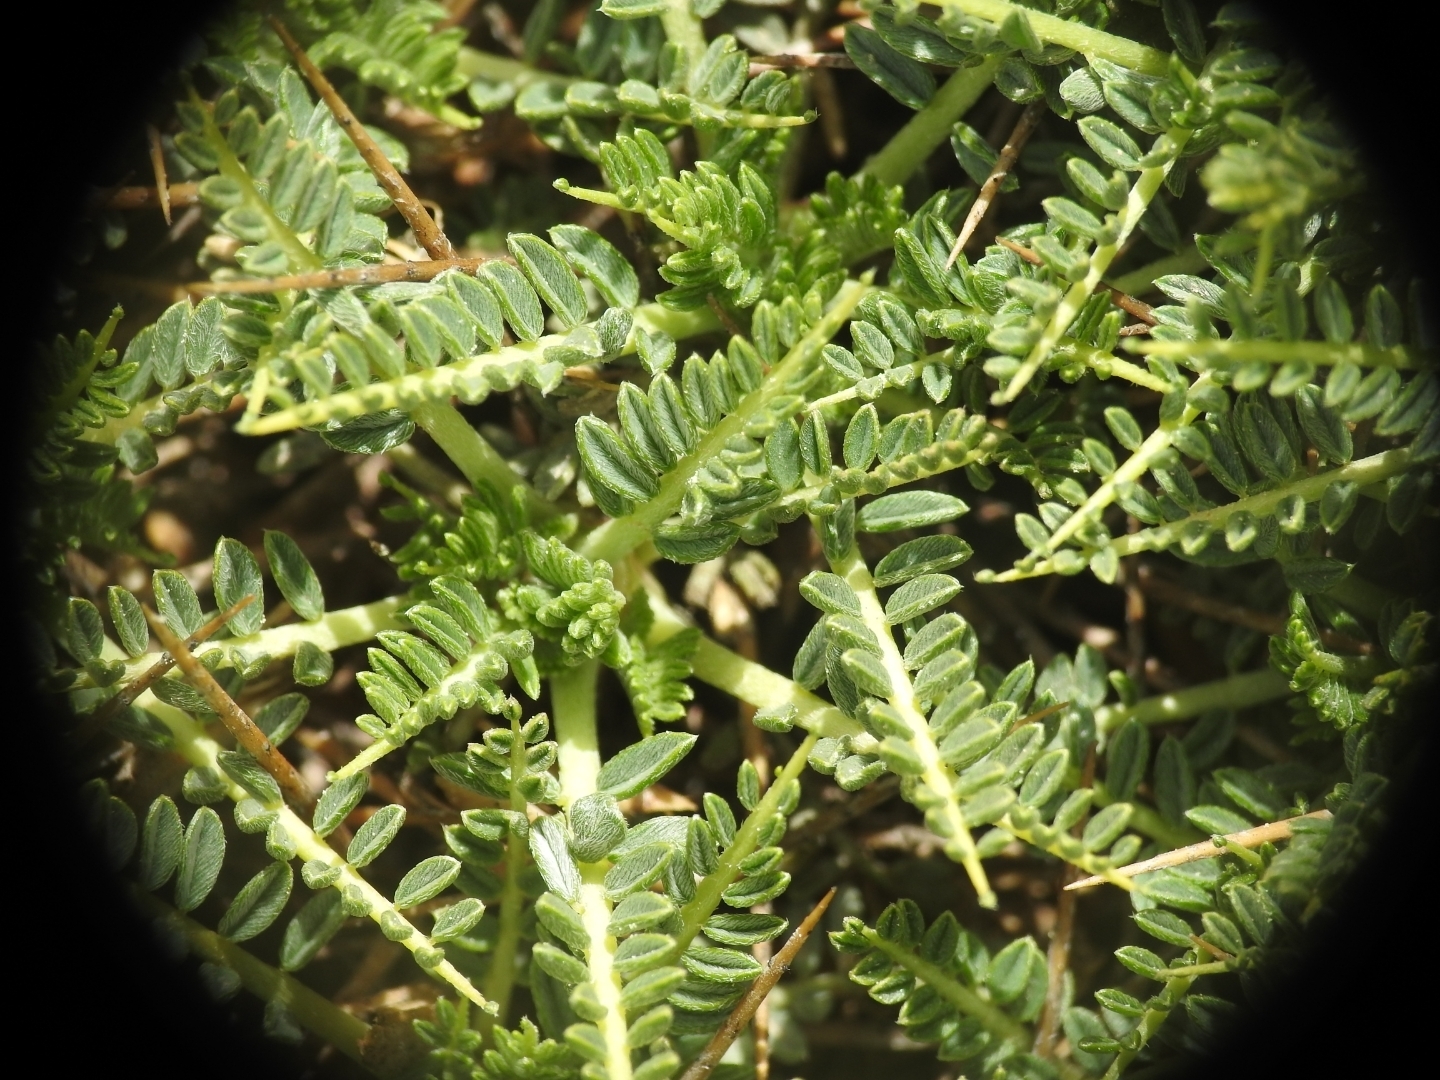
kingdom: Plantae
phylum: Tracheophyta
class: Magnoliopsida
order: Fabales
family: Fabaceae
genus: Astragalus
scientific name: Astragalus angustifolius
